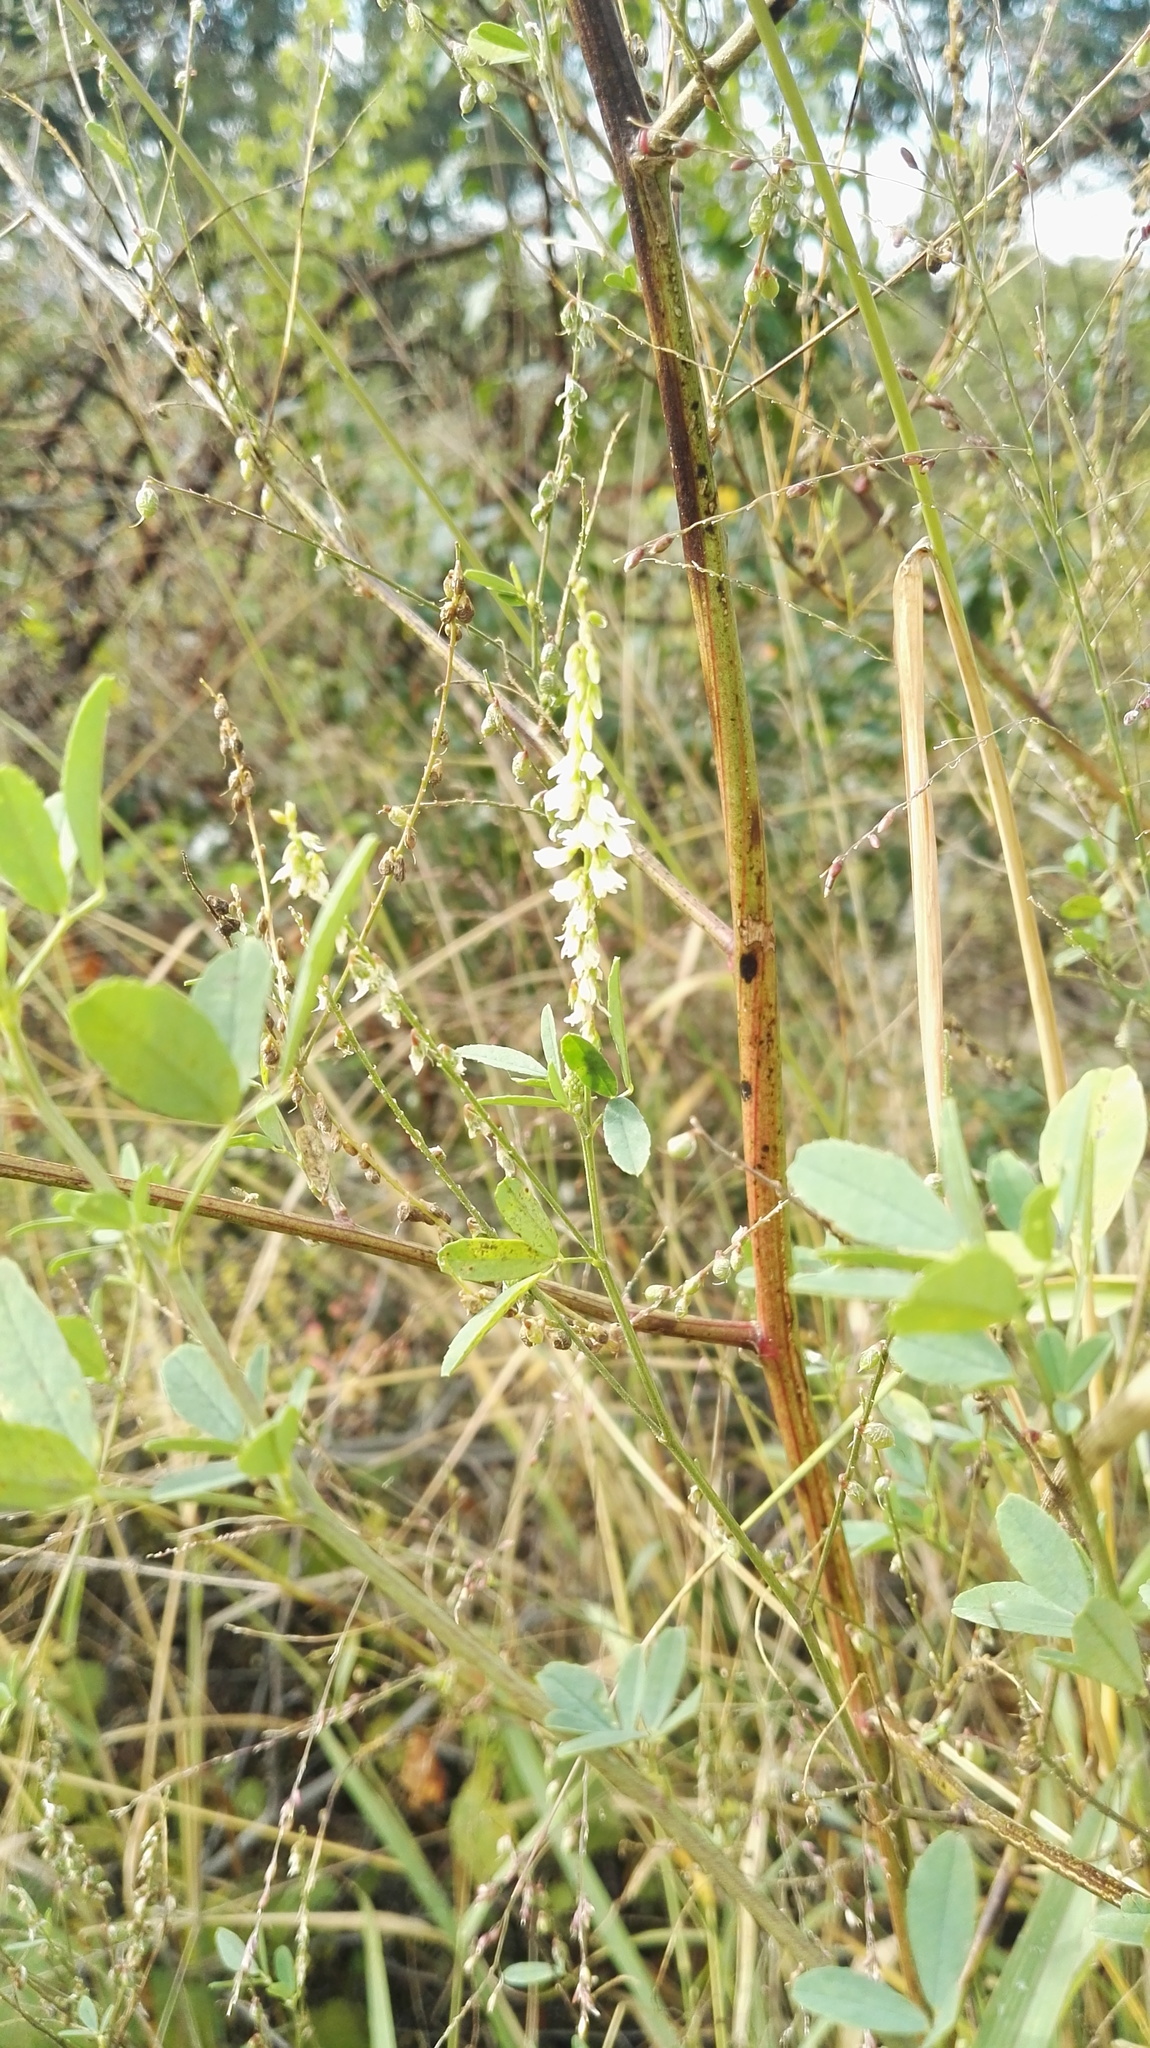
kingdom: Plantae
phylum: Tracheophyta
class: Magnoliopsida
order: Fabales
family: Fabaceae
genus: Melilotus
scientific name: Melilotus albus
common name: White melilot
